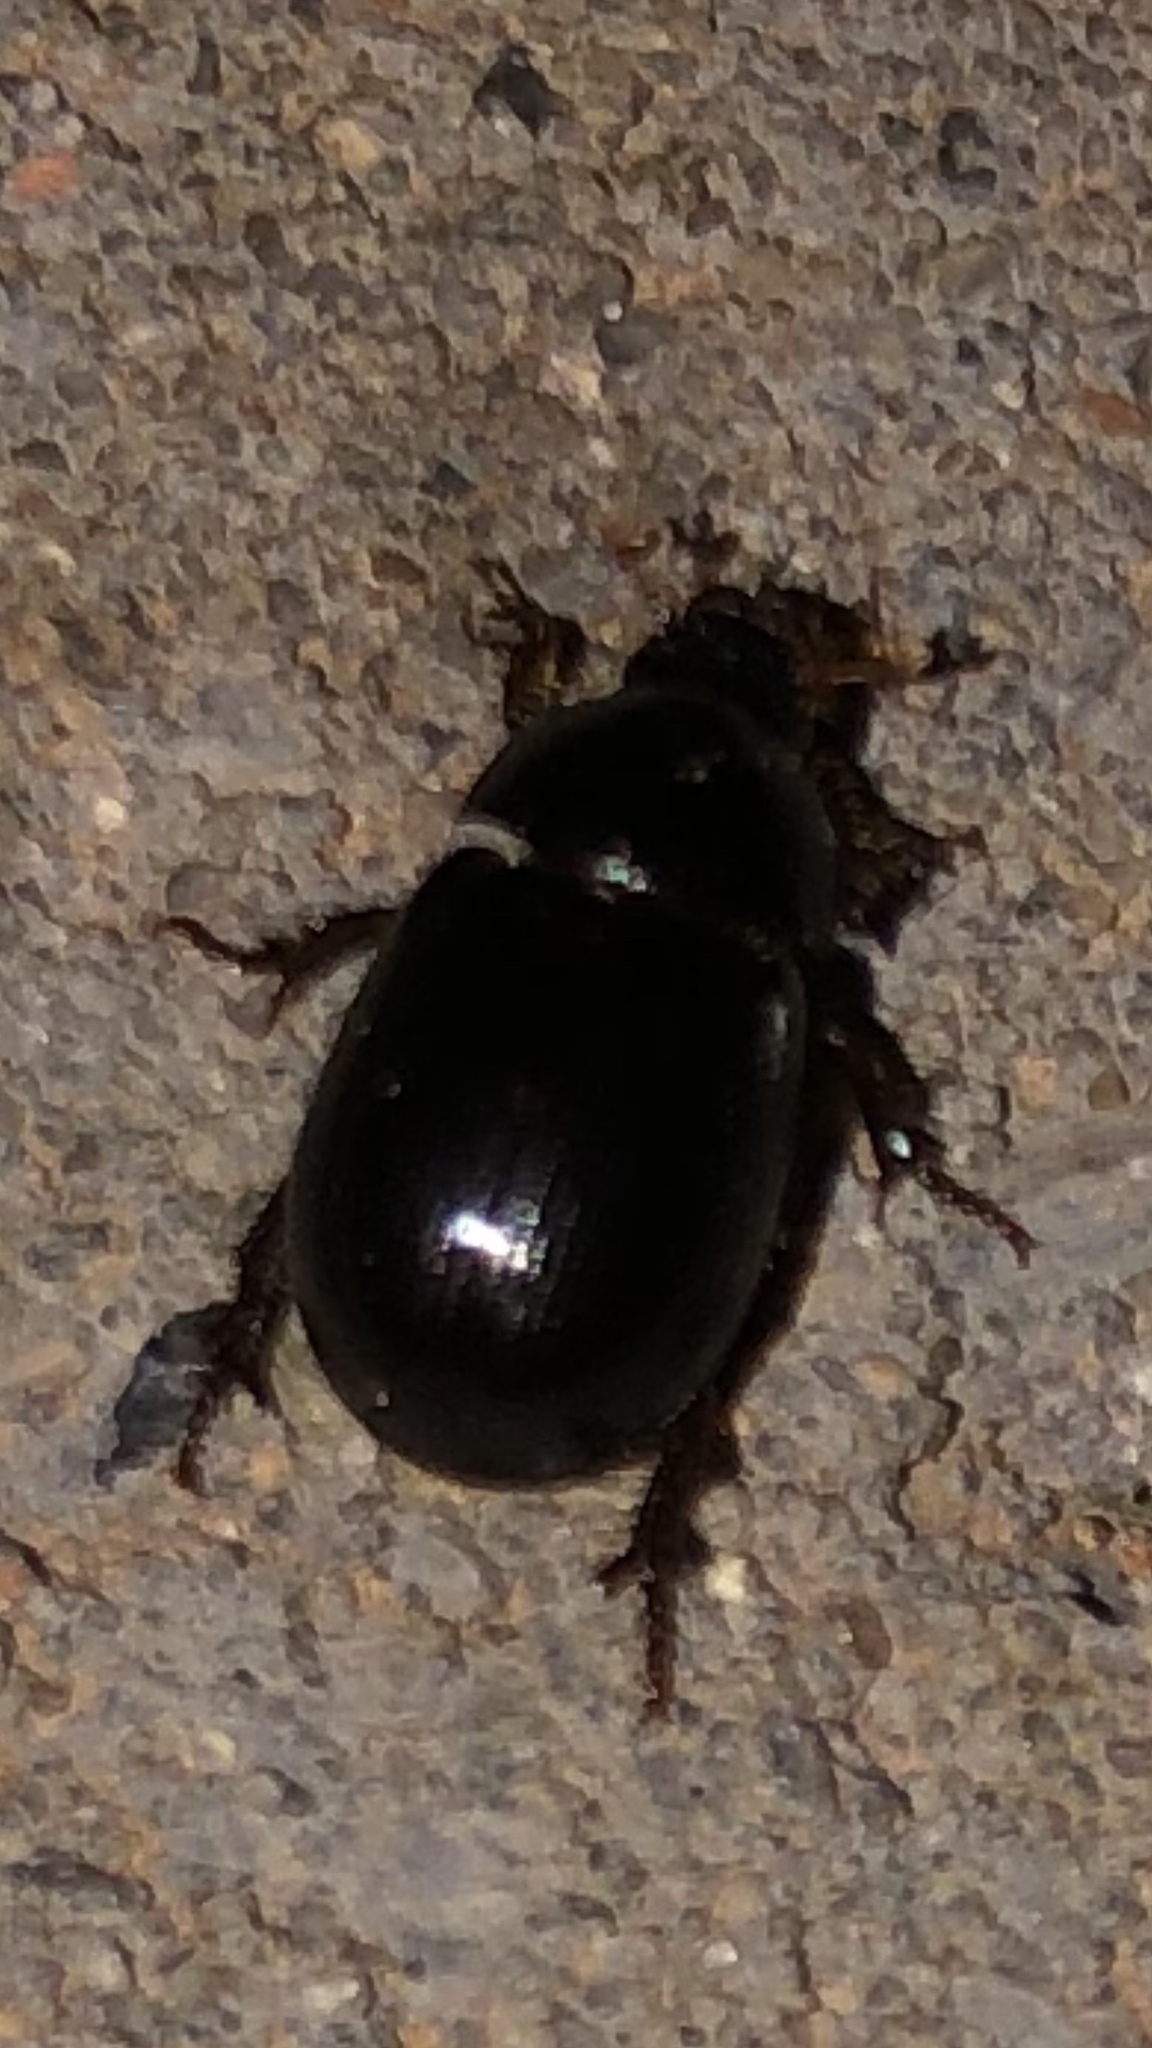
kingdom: Animalia
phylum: Arthropoda
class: Insecta
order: Coleoptera
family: Hybosoridae
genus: Hybosorus
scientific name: Hybosorus illigeri
